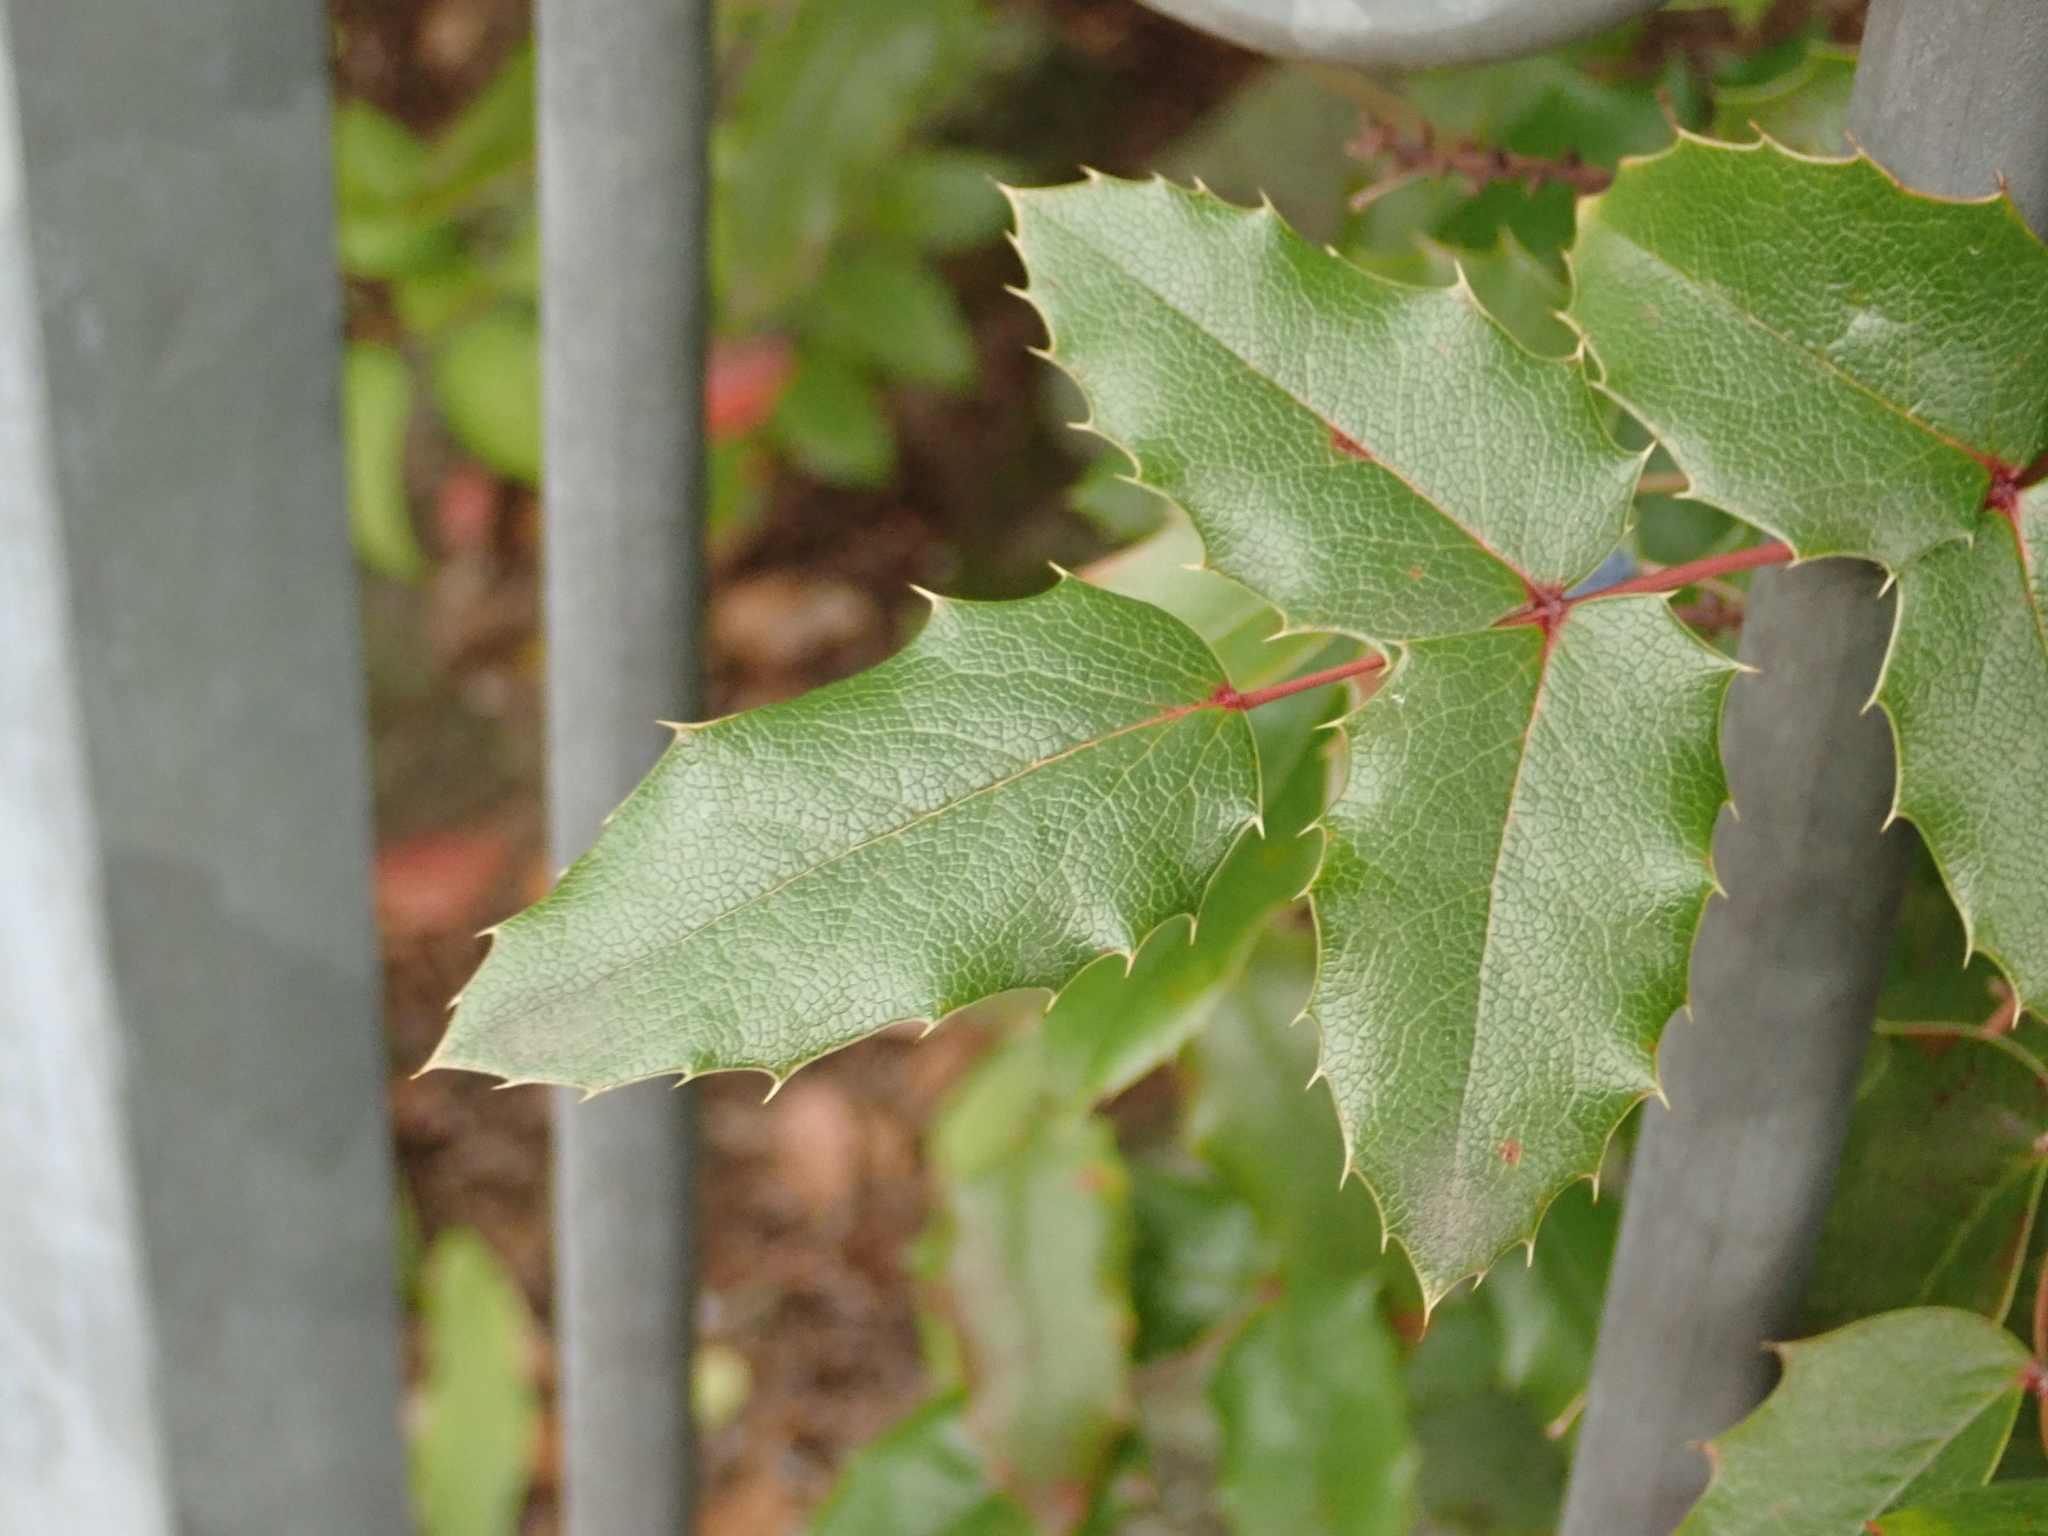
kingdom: Plantae
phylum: Tracheophyta
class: Magnoliopsida
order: Ranunculales
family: Berberidaceae
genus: Mahonia
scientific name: Mahonia aquifolium
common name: Oregon-grape
